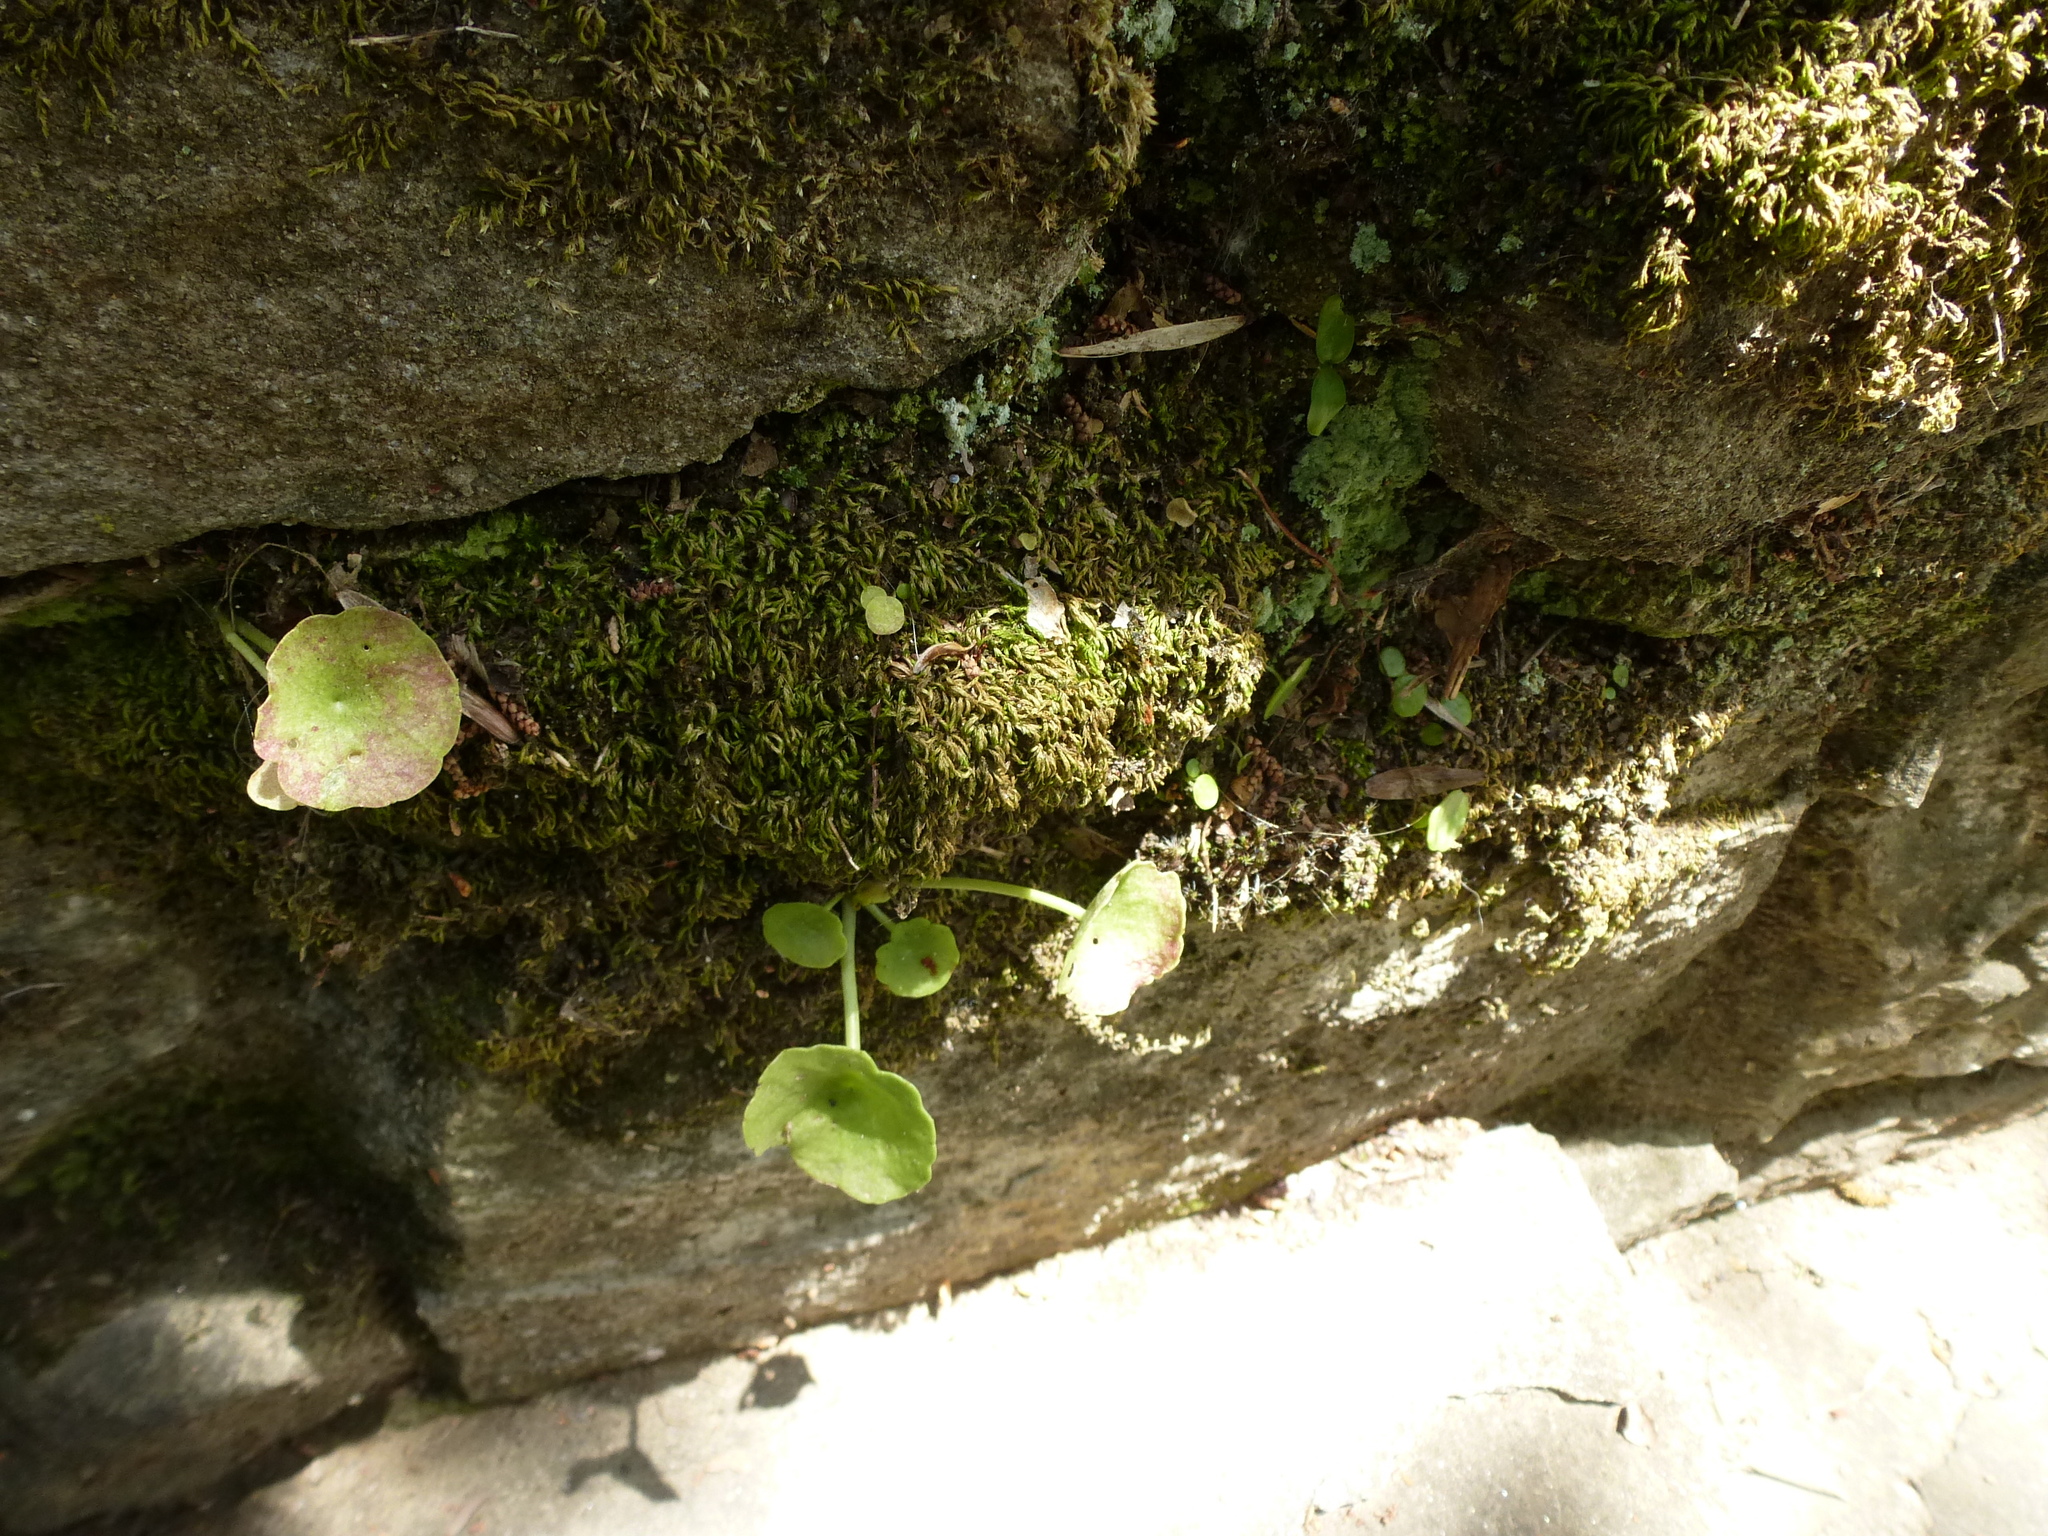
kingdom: Plantae
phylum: Tracheophyta
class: Magnoliopsida
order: Saxifragales
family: Crassulaceae
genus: Umbilicus
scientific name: Umbilicus rupestris
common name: Navelwort
